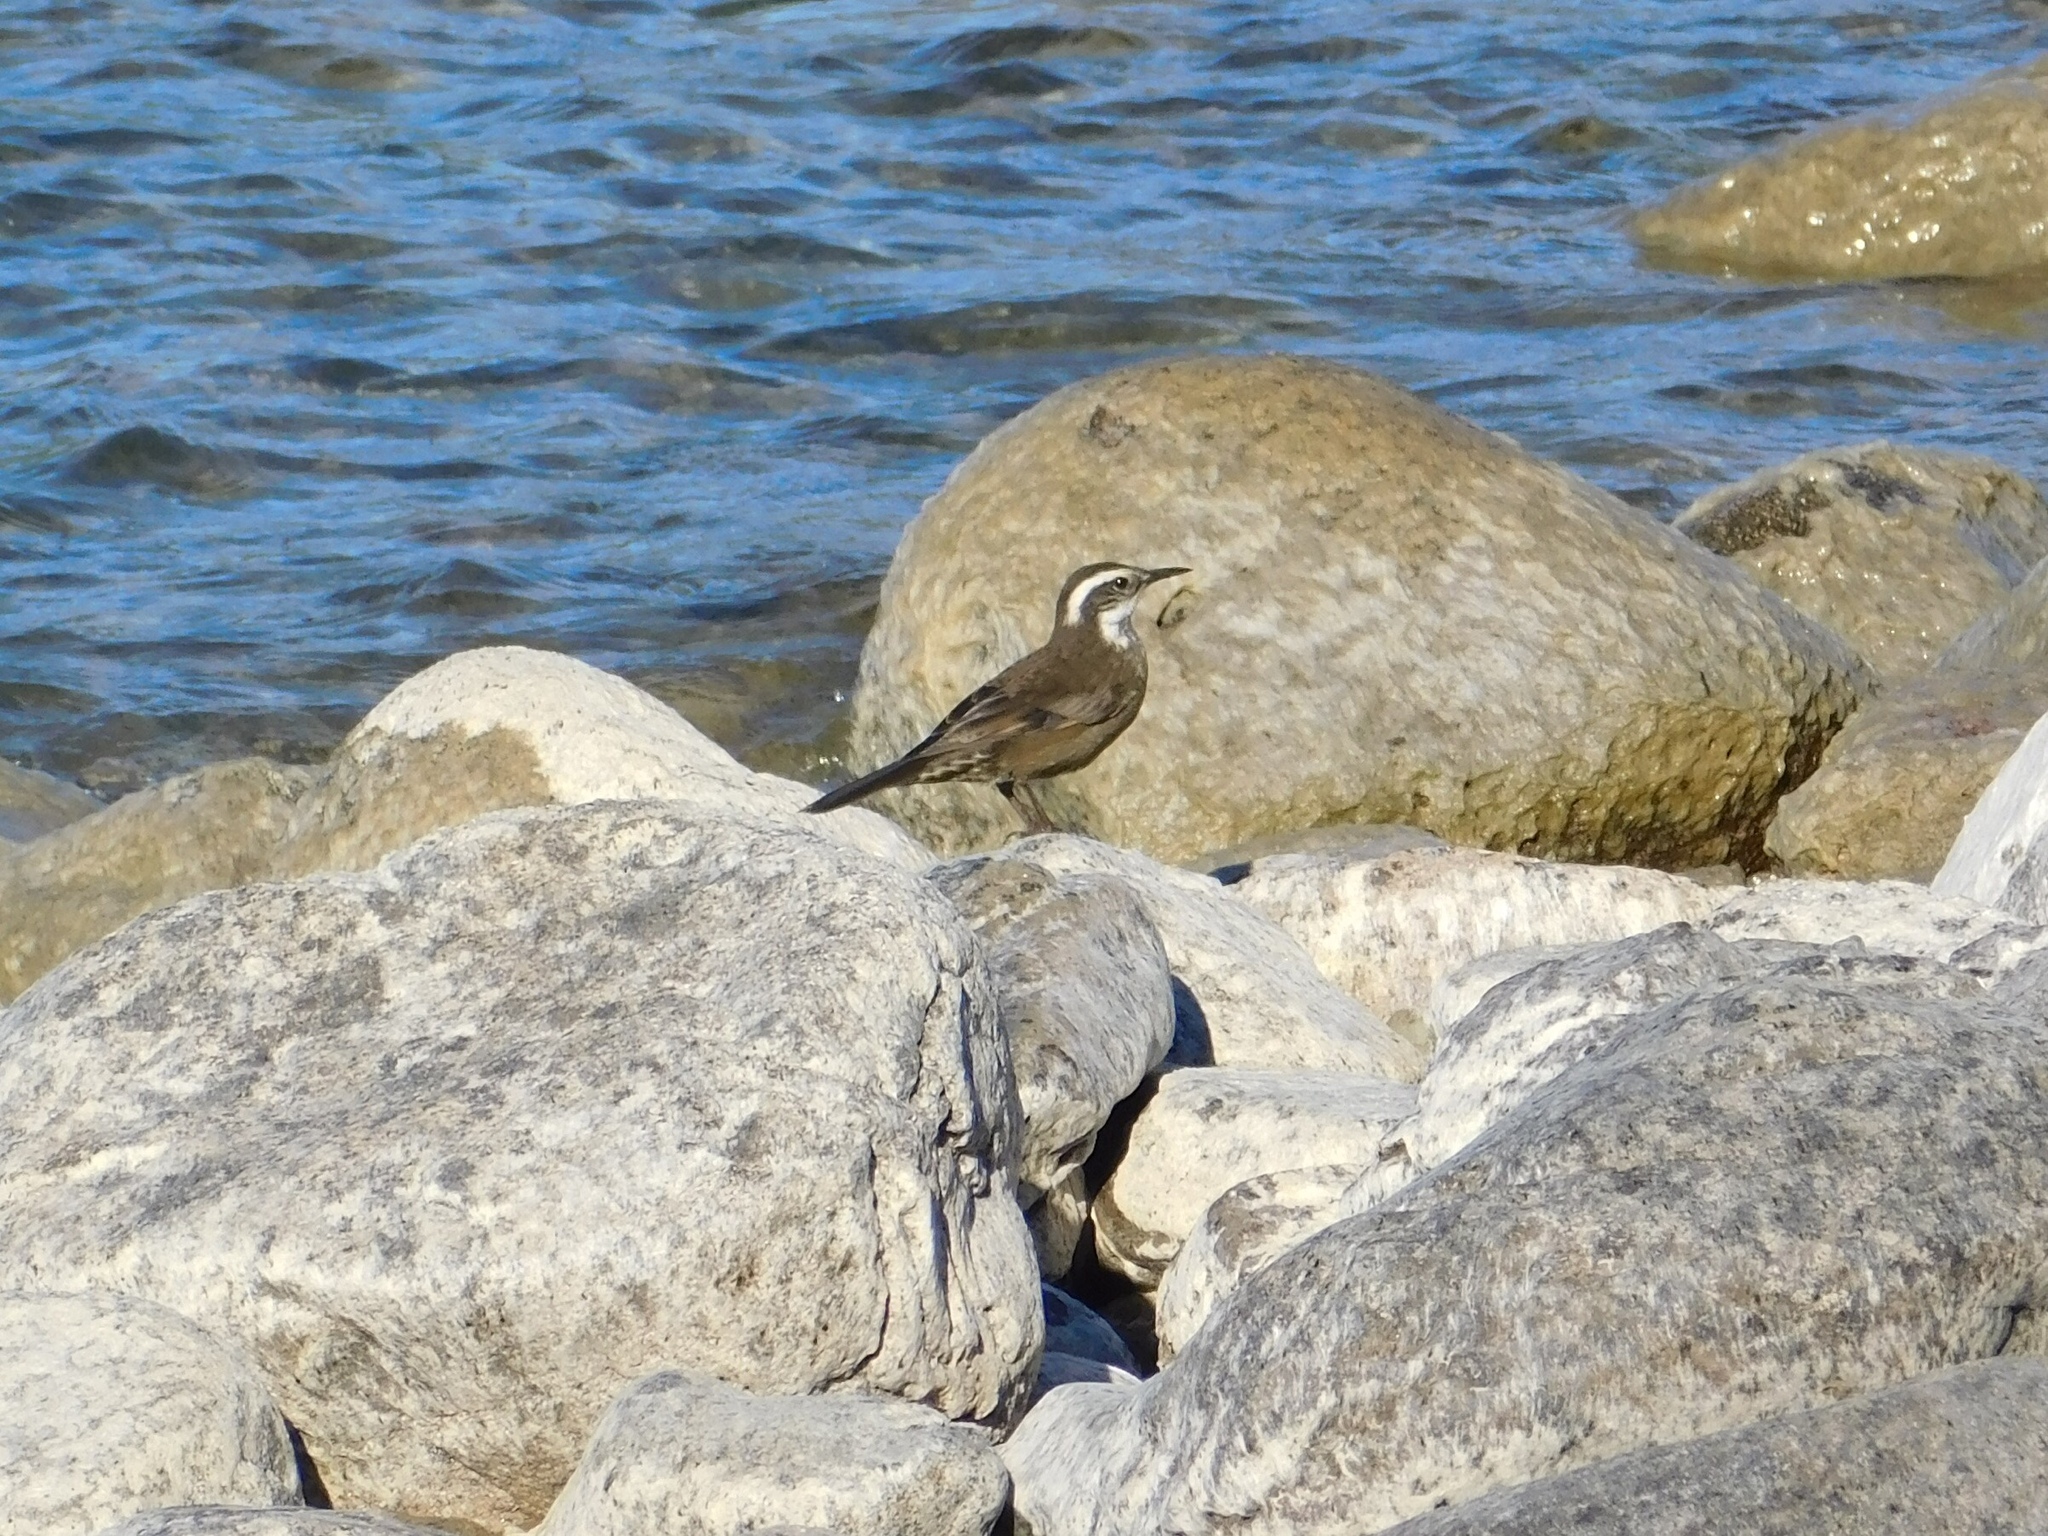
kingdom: Animalia
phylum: Chordata
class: Aves
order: Passeriformes
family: Furnariidae
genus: Cinclodes
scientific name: Cinclodes patagonicus
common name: Dark-bellied cinclodes
